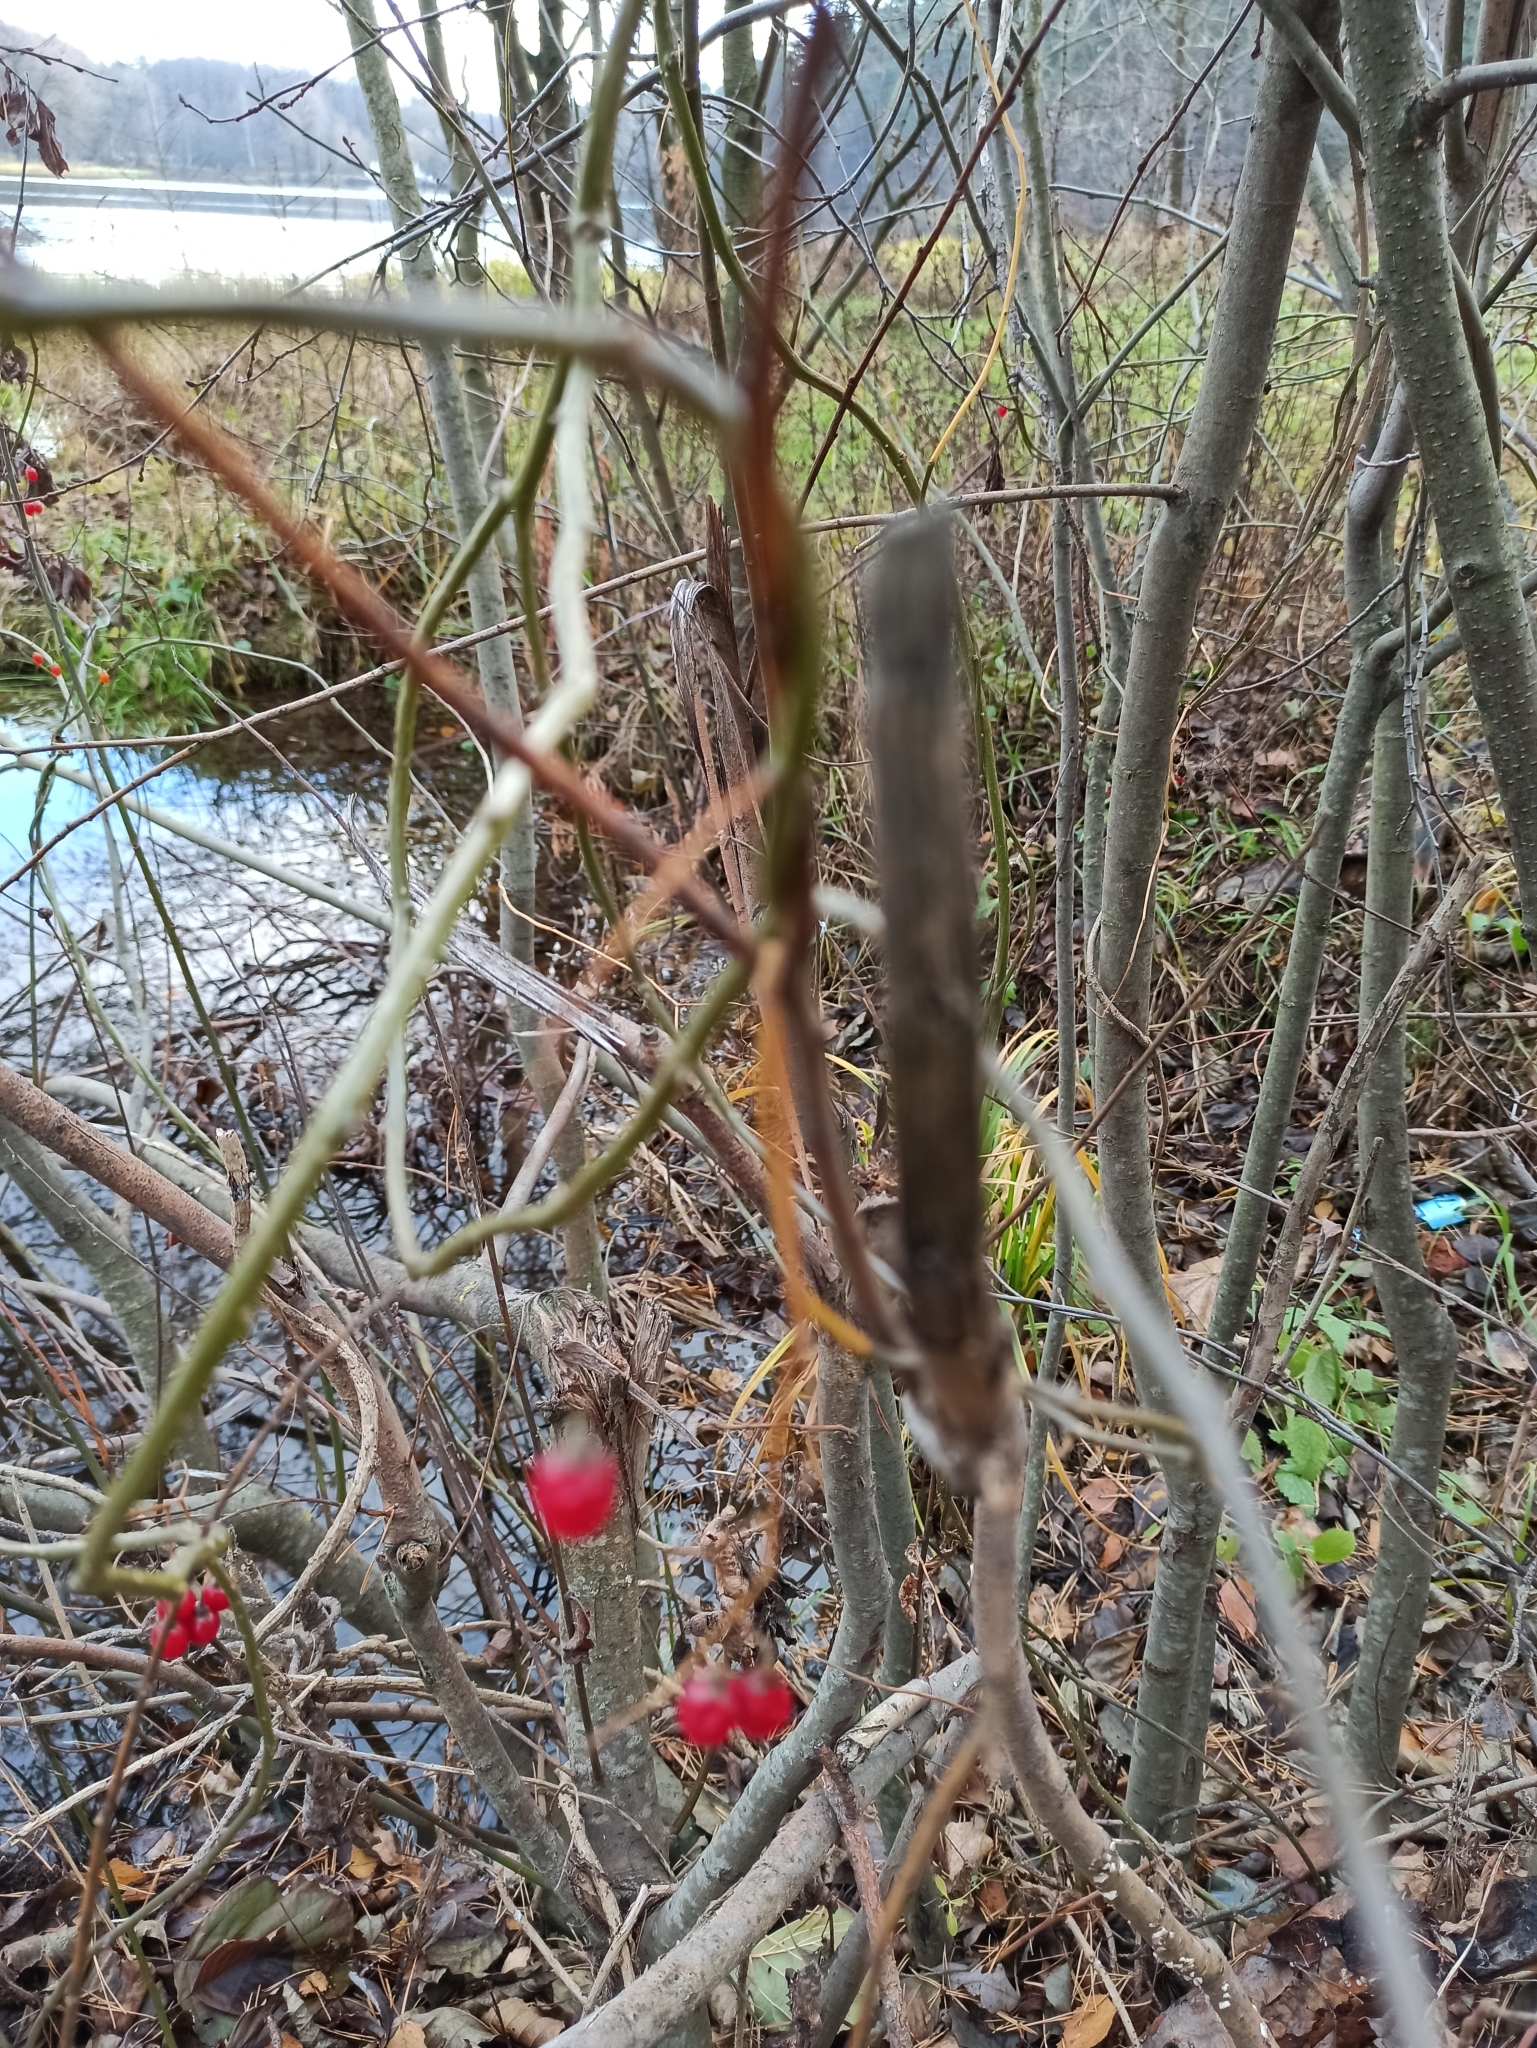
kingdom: Plantae
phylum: Tracheophyta
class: Magnoliopsida
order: Solanales
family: Solanaceae
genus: Solanum
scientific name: Solanum dulcamara
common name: Climbing nightshade
